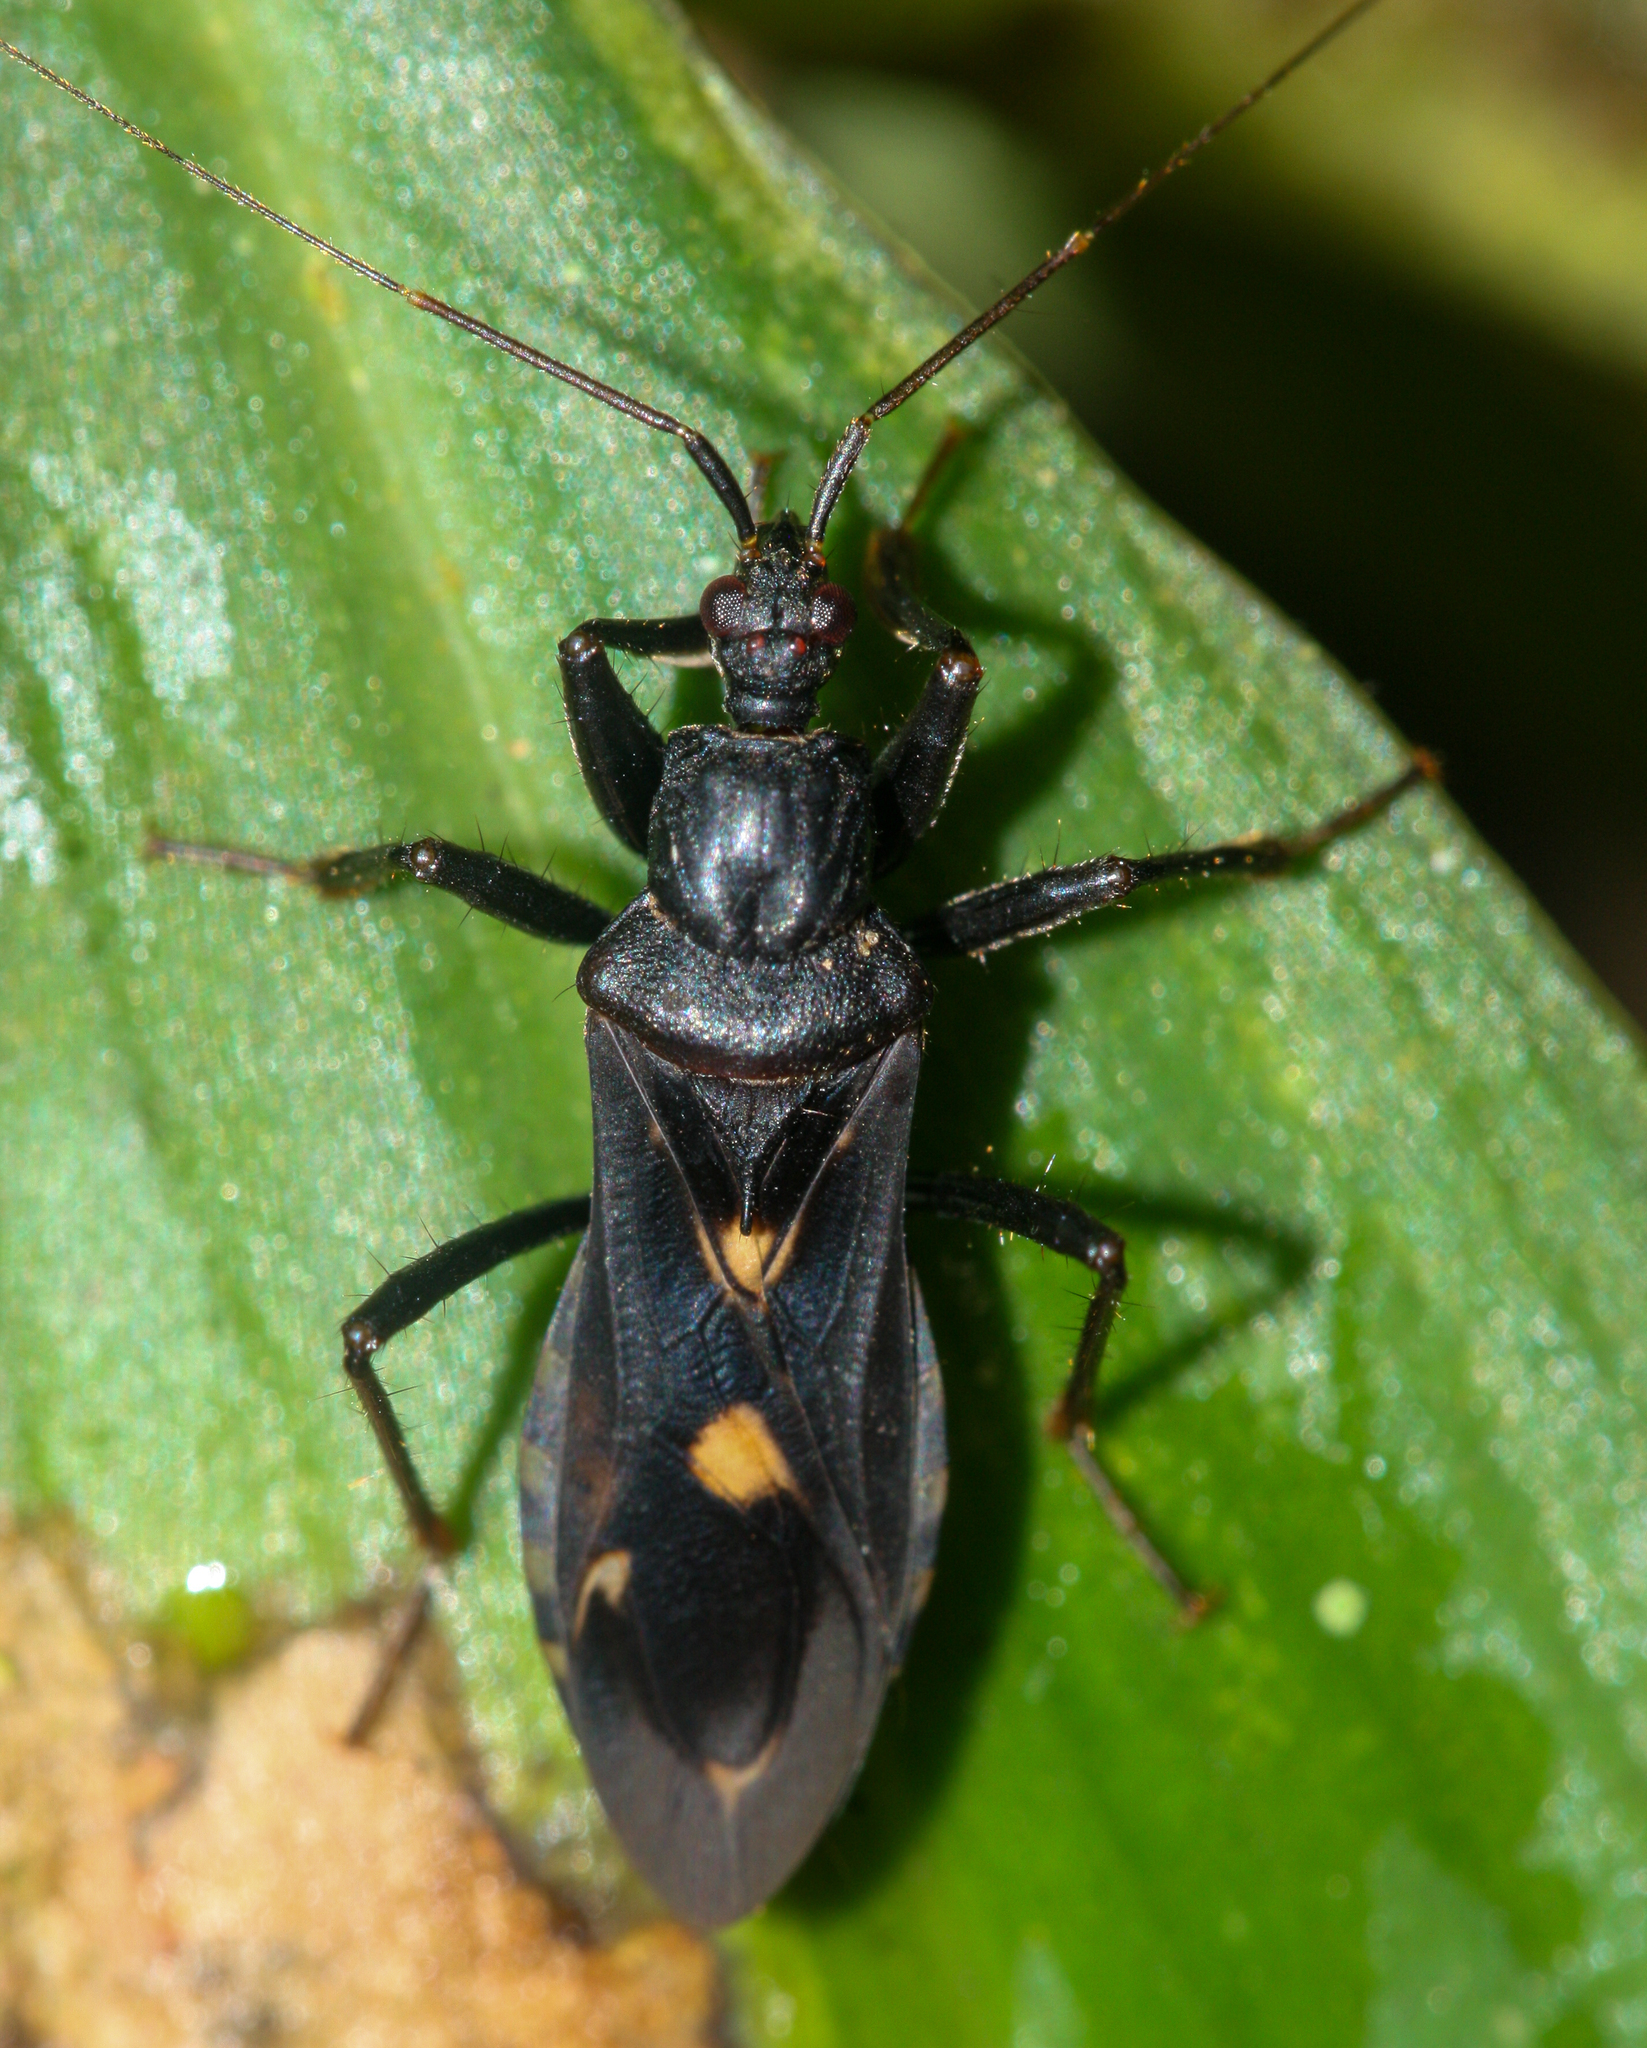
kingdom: Animalia
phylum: Arthropoda
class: Insecta
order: Hemiptera
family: Reduviidae
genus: Rasahus
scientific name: Rasahus guttatipennis
